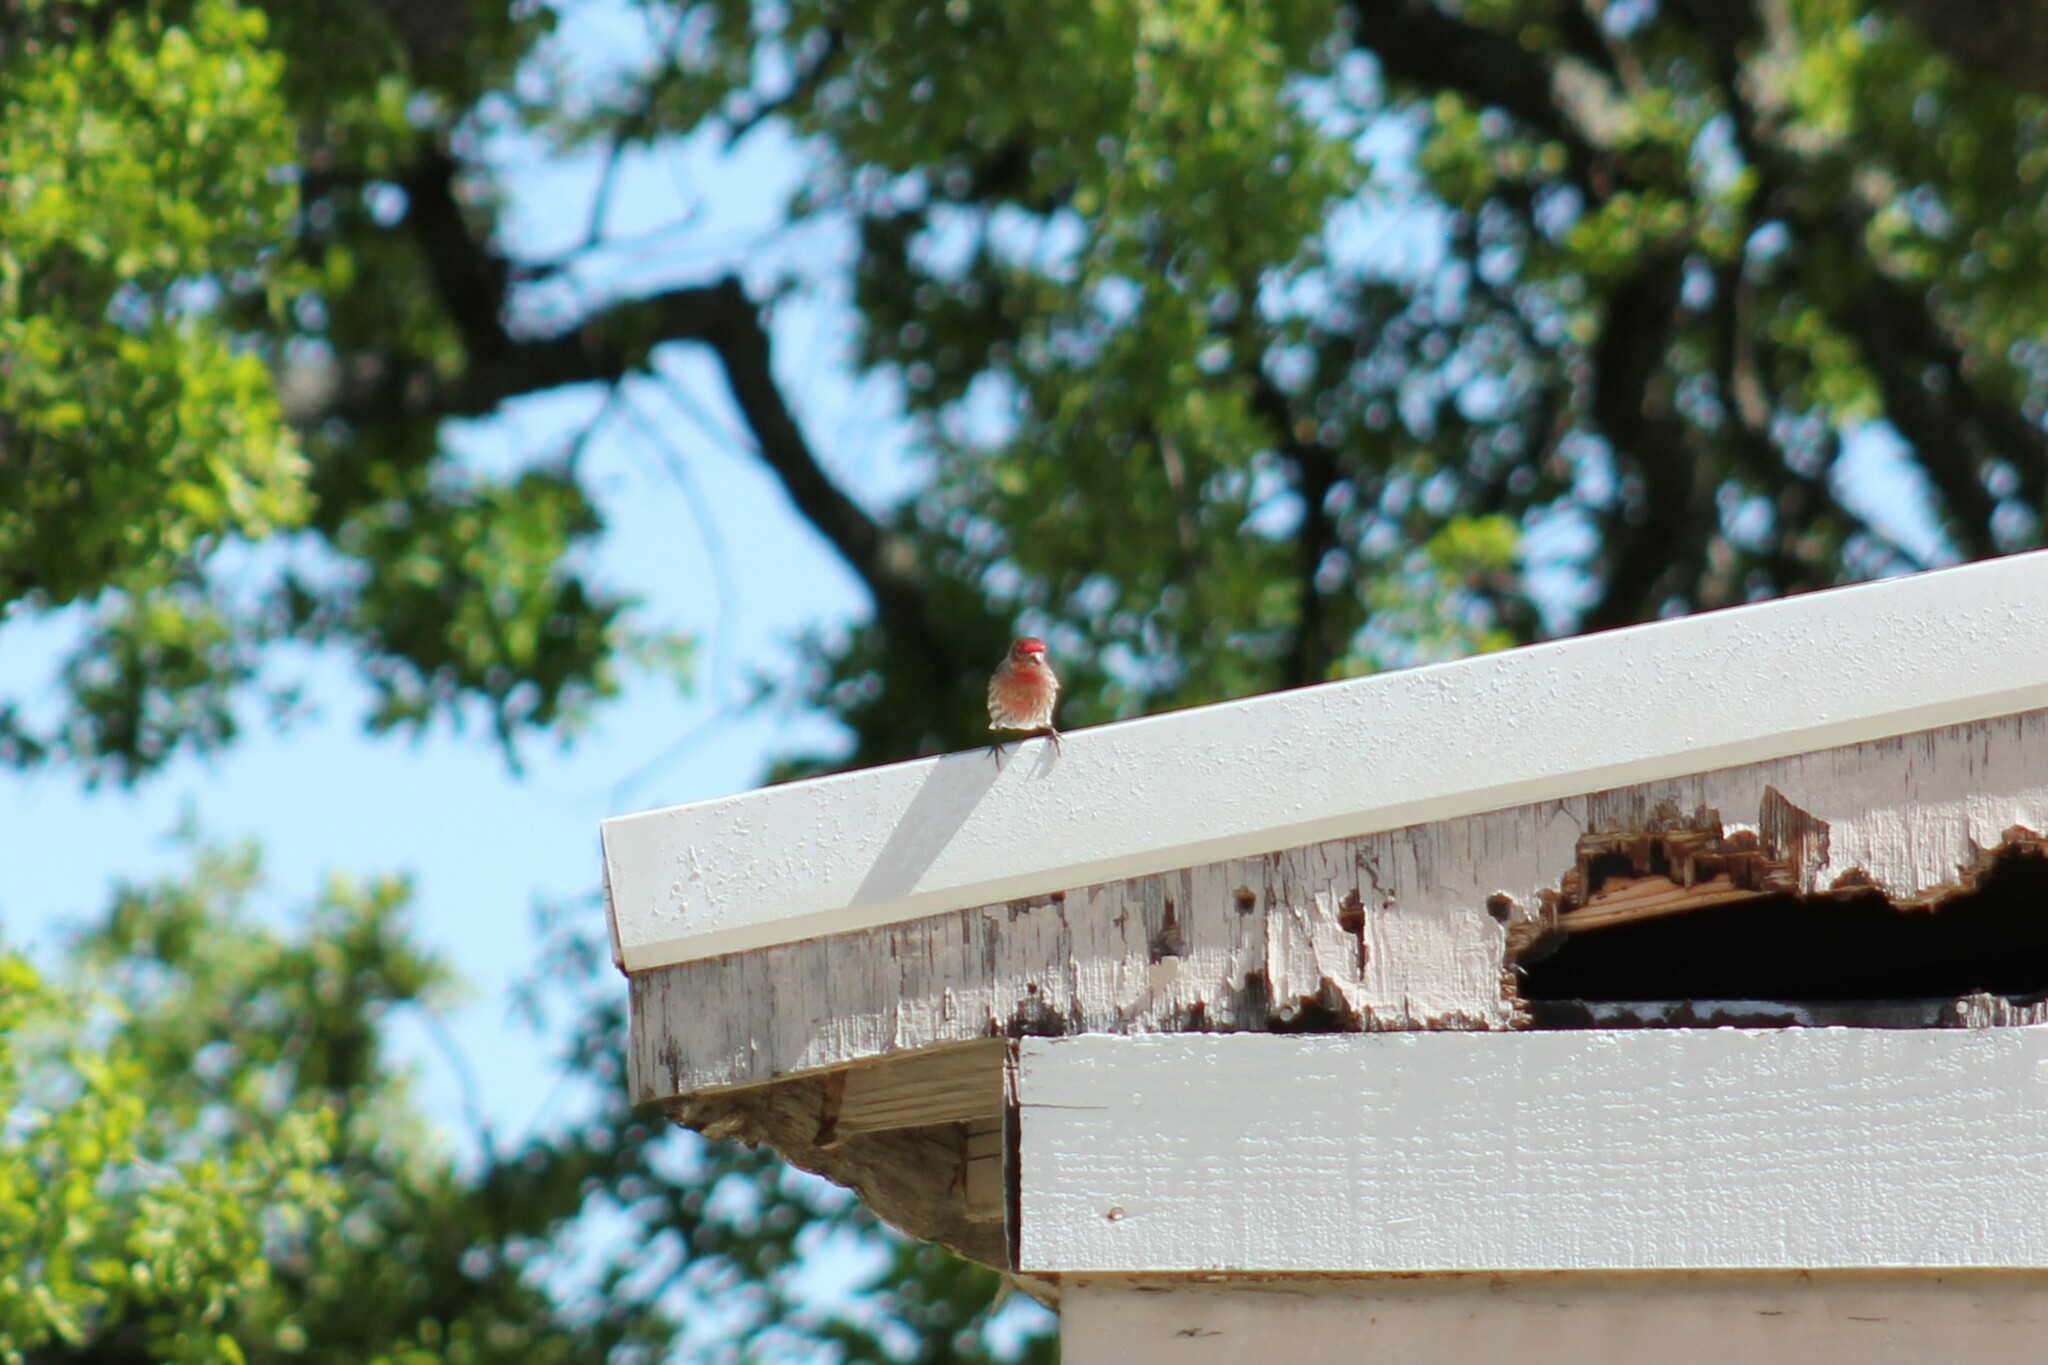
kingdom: Animalia
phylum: Chordata
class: Aves
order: Passeriformes
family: Fringillidae
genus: Haemorhous
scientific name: Haemorhous mexicanus
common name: House finch
